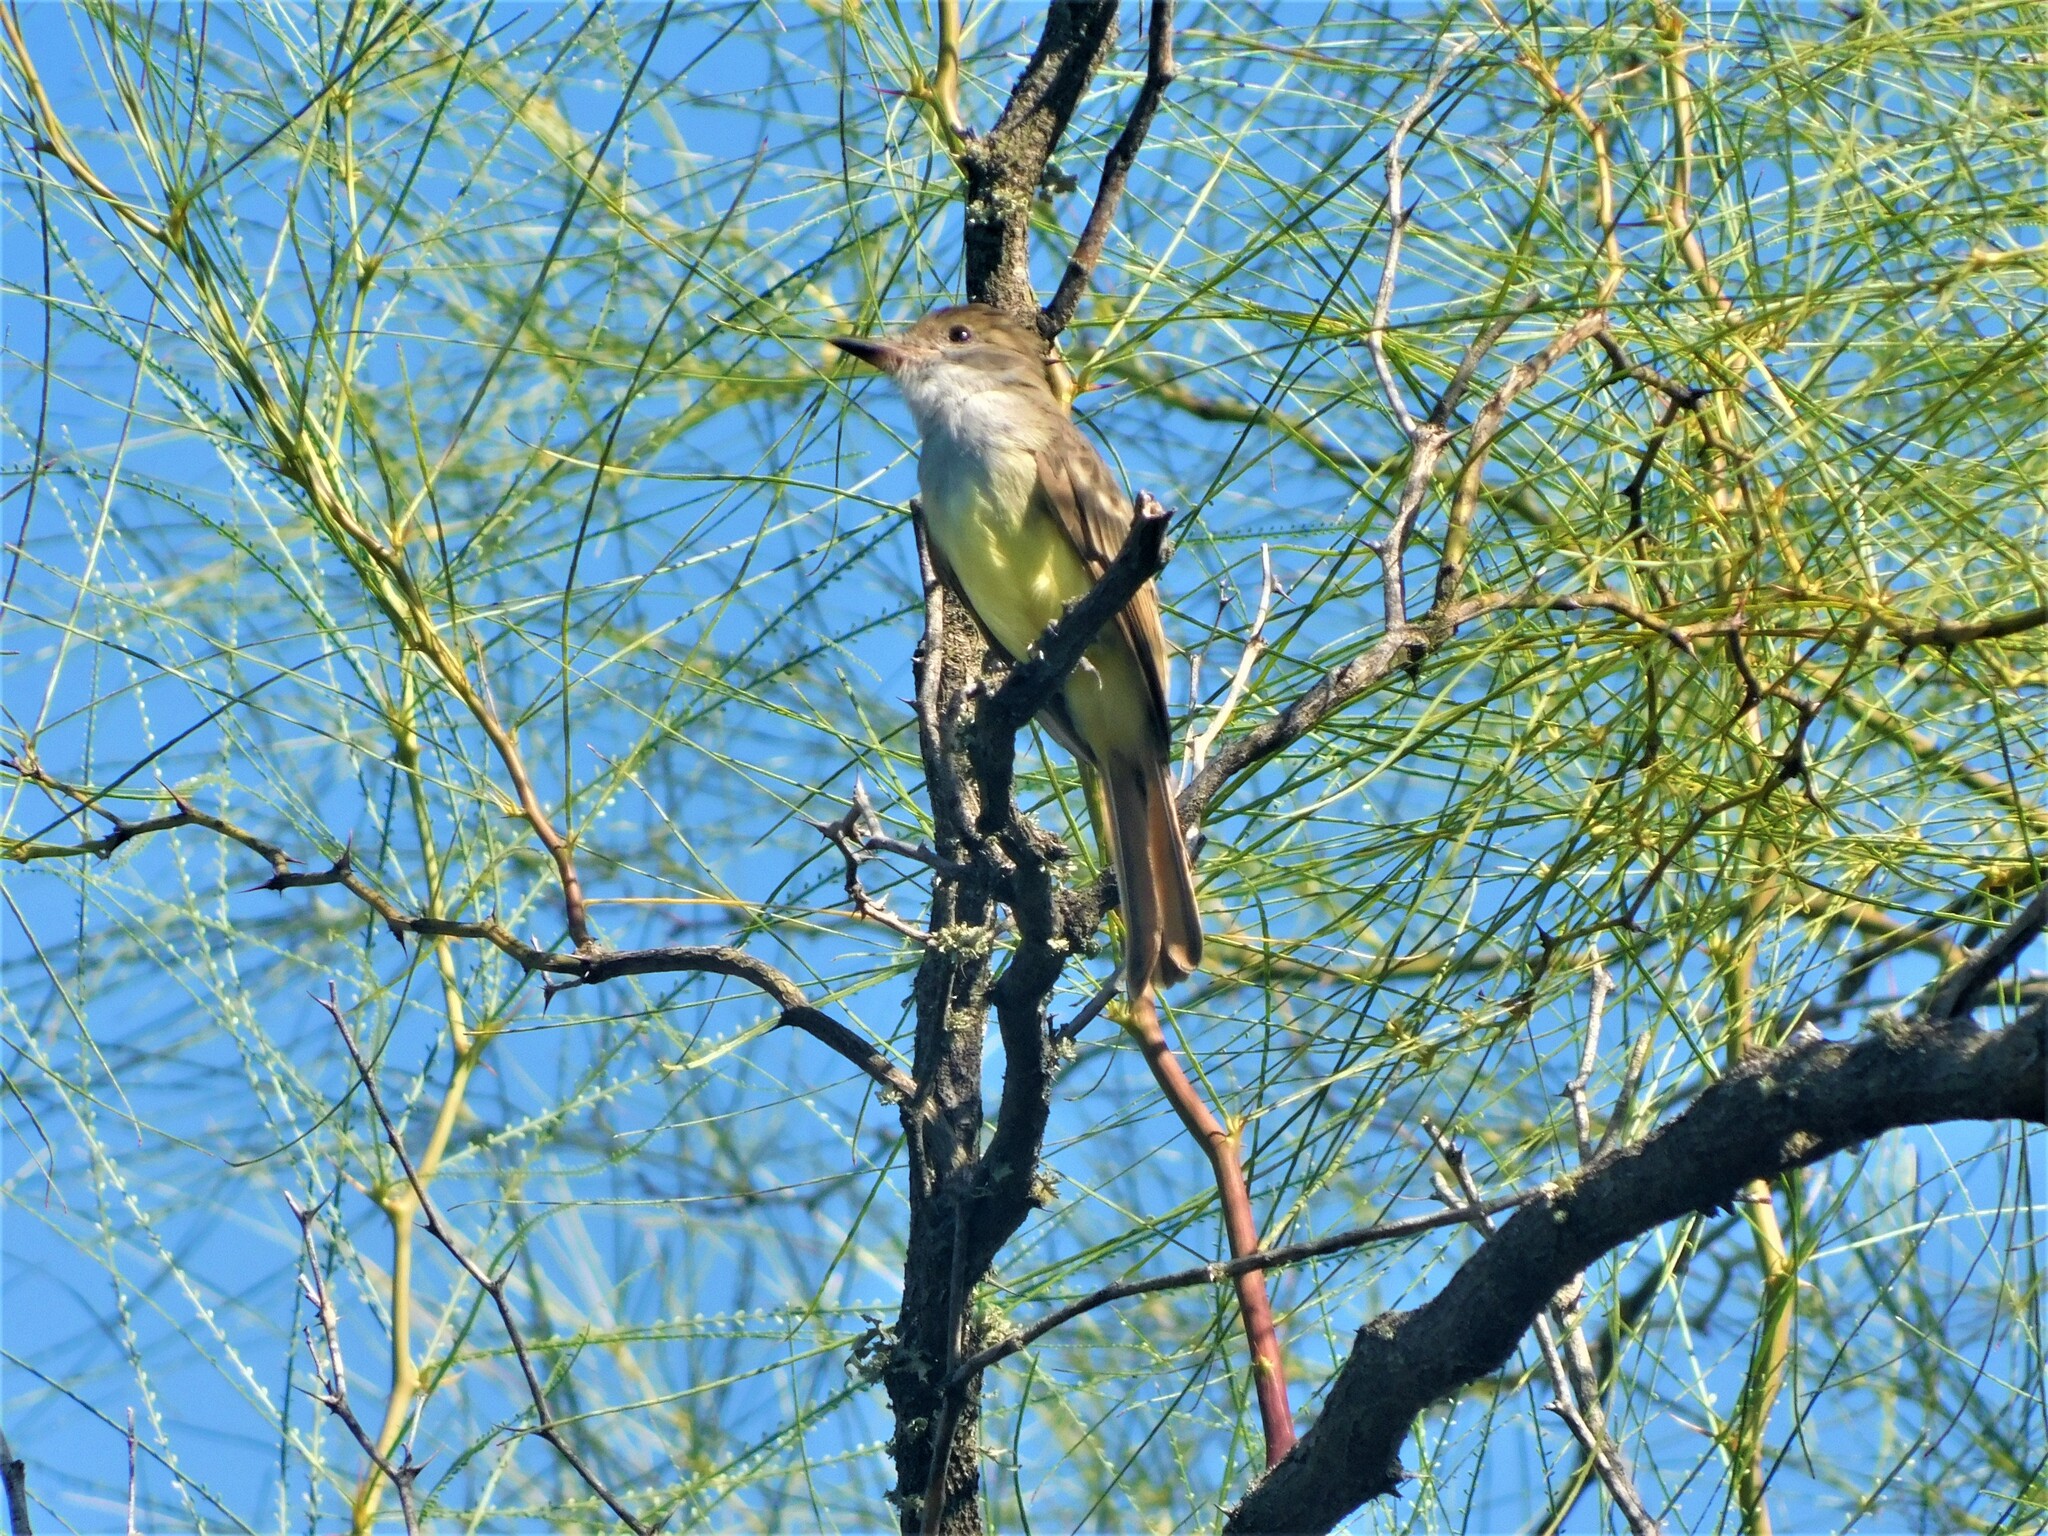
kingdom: Animalia
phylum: Chordata
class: Aves
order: Passeriformes
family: Tyrannidae
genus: Myiarchus
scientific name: Myiarchus tyrannulus
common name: Brown-crested flycatcher
